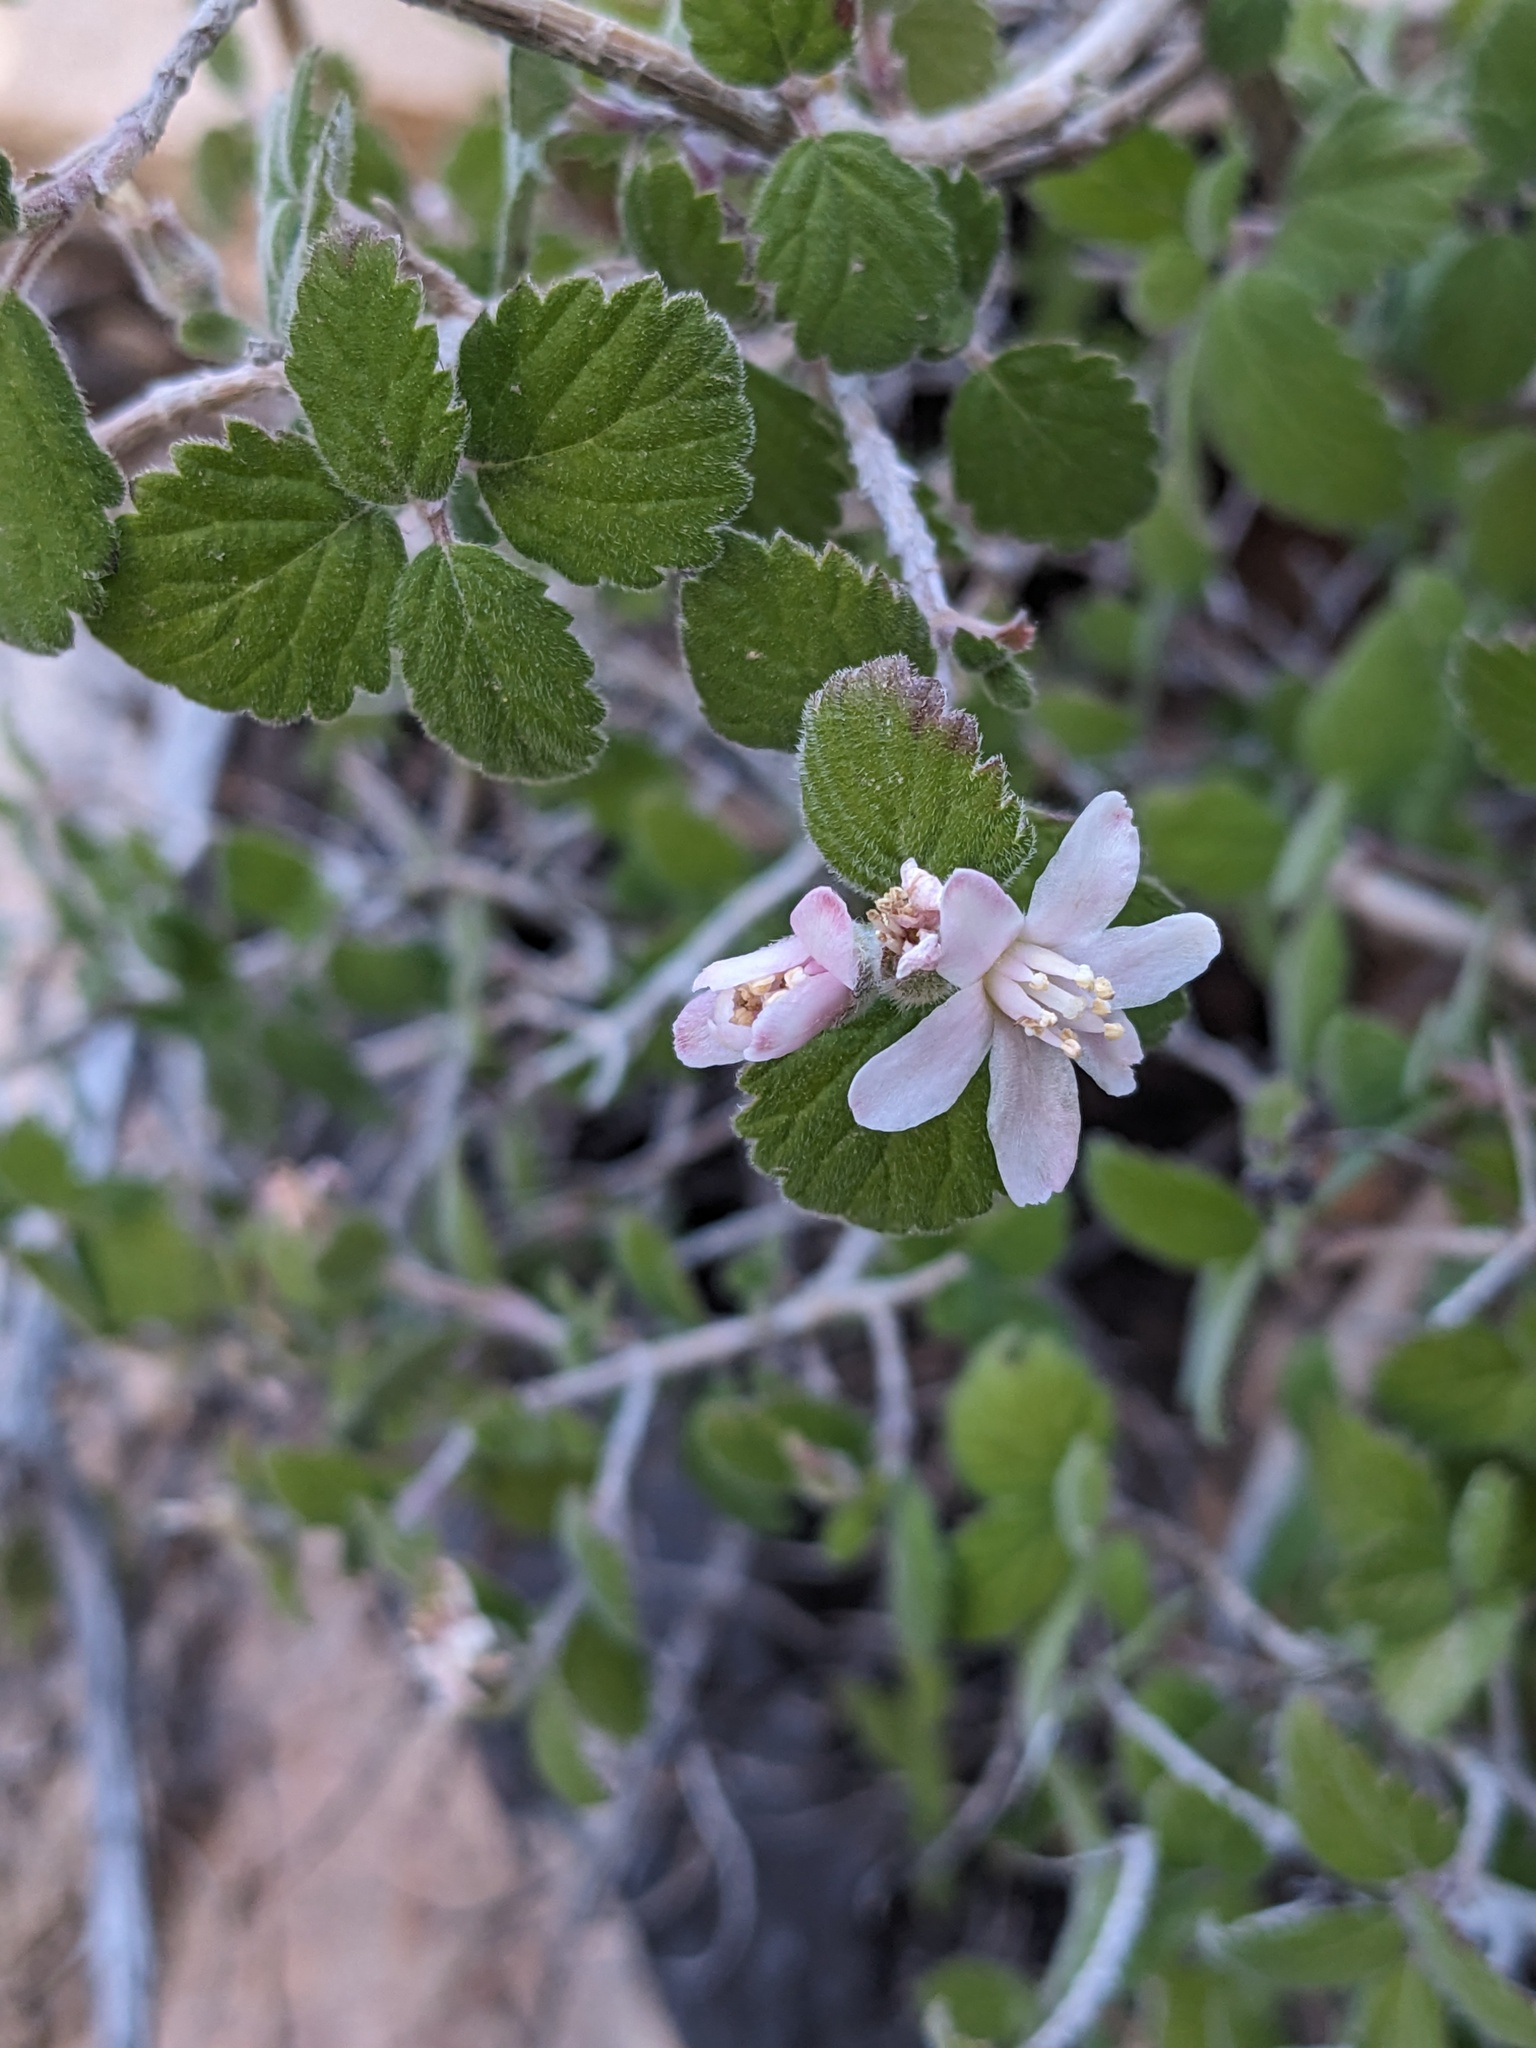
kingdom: Plantae
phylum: Tracheophyta
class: Magnoliopsida
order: Cornales
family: Hydrangeaceae
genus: Jamesia
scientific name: Jamesia americana
